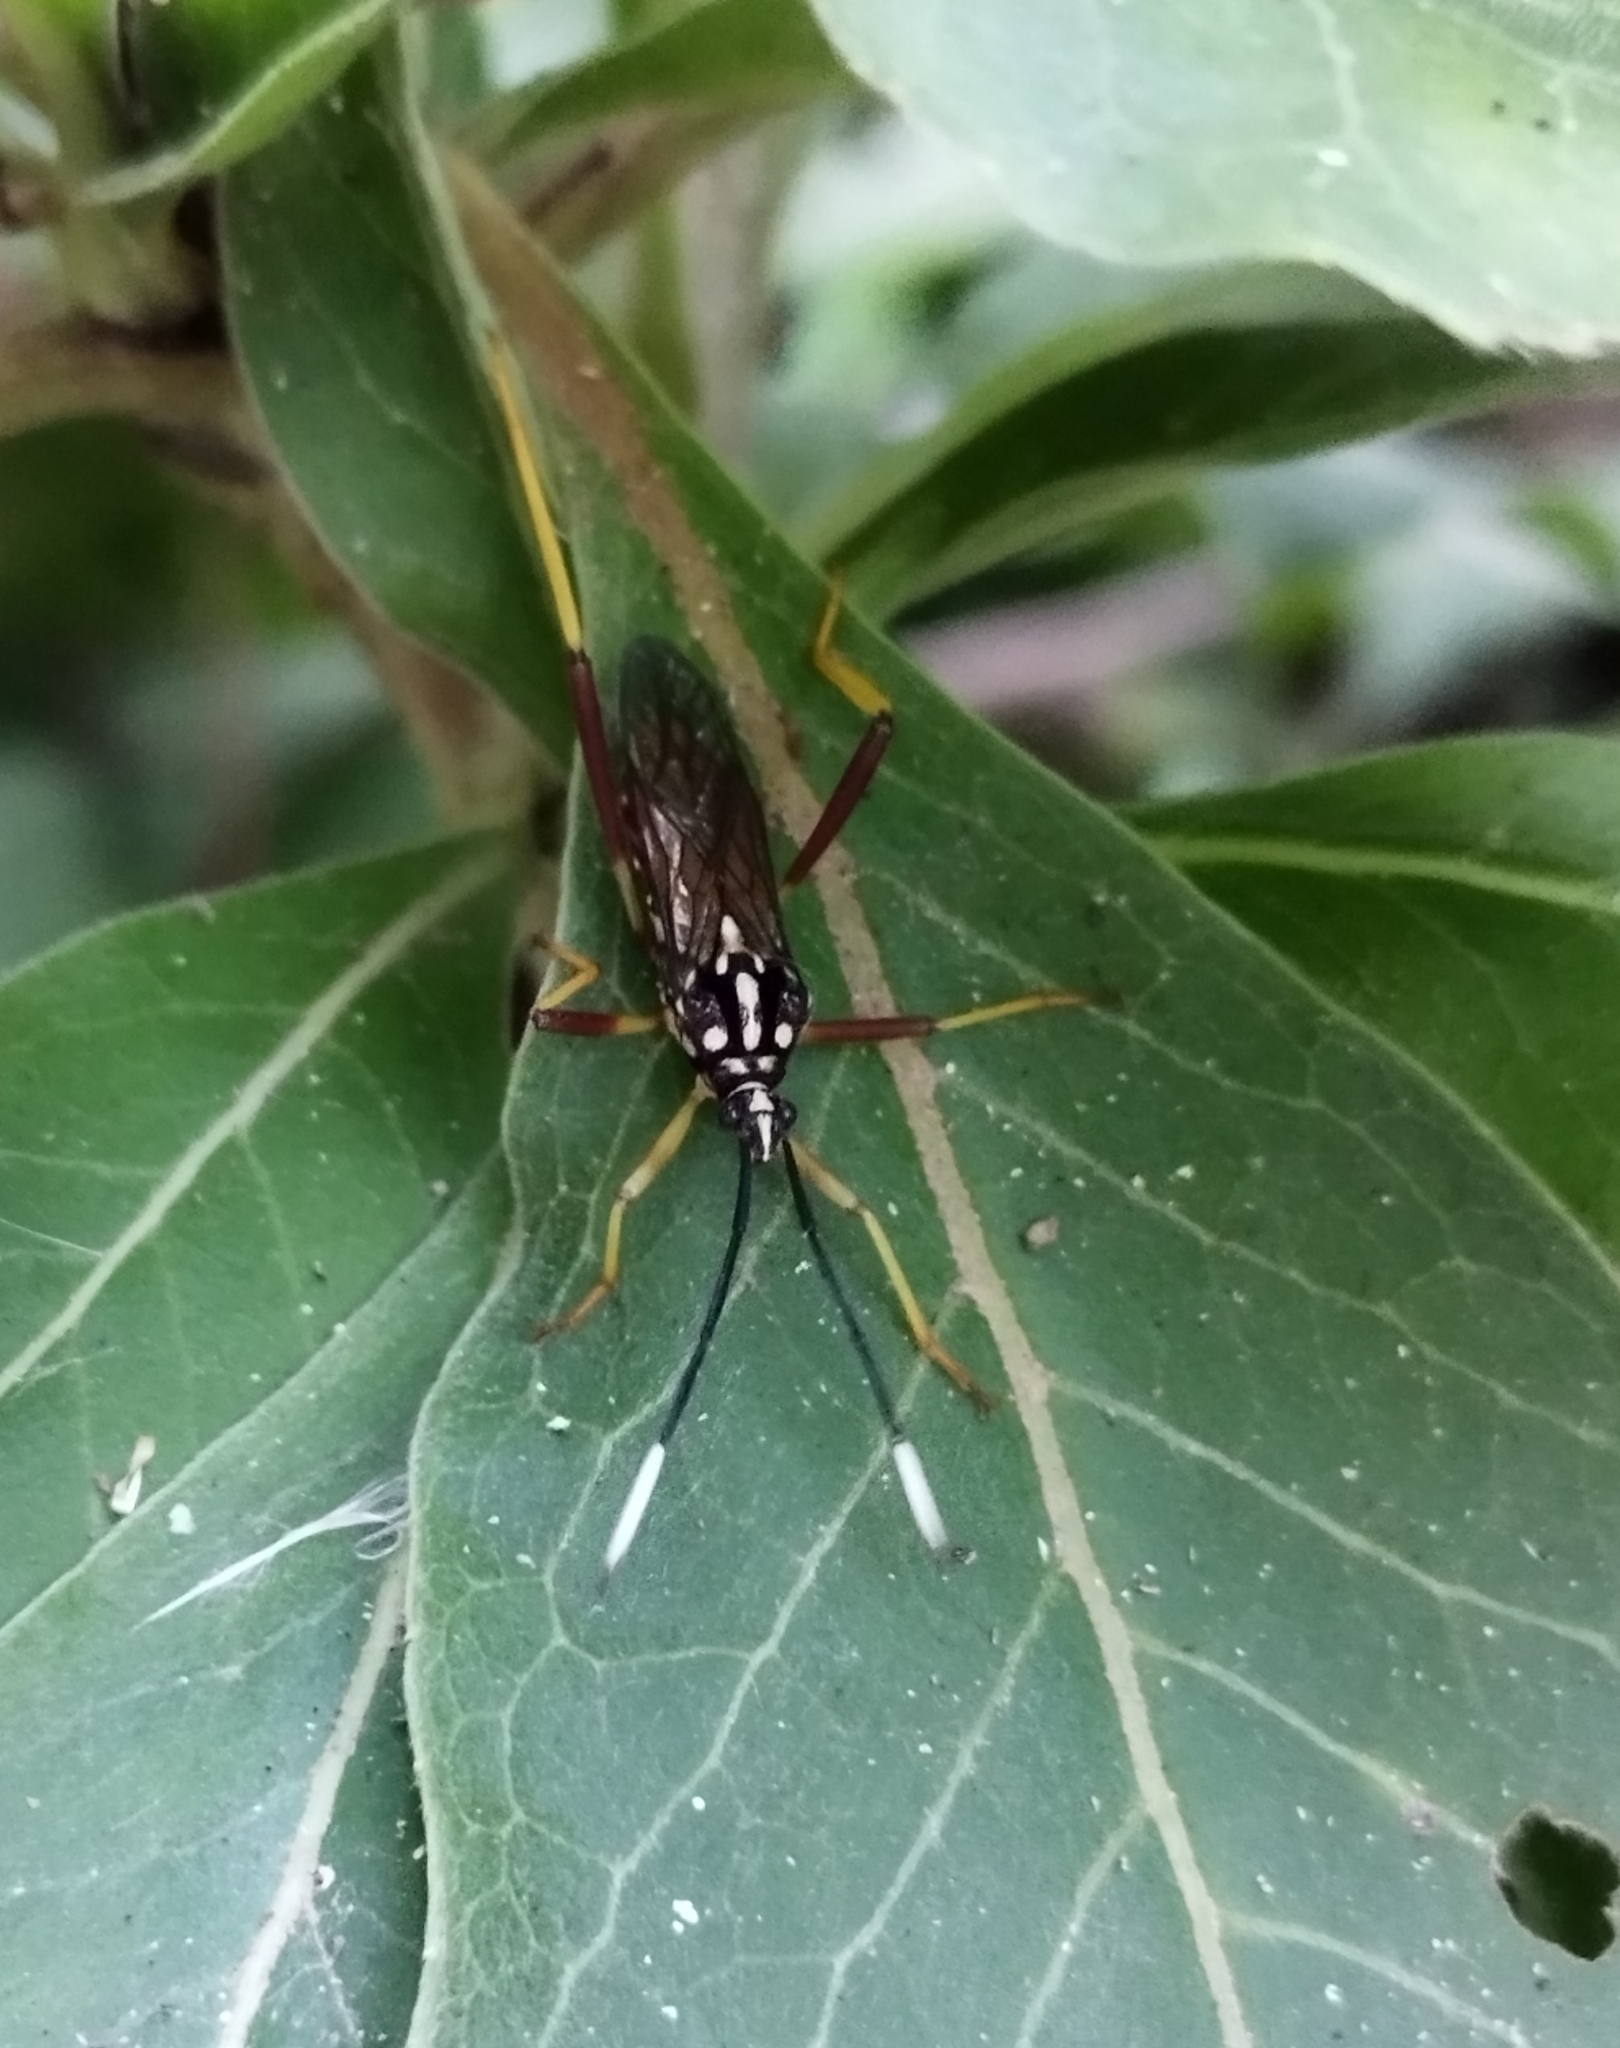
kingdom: Animalia
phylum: Arthropoda
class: Insecta
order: Hemiptera
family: Coreidae
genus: Holhymenia
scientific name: Holhymenia histrio
